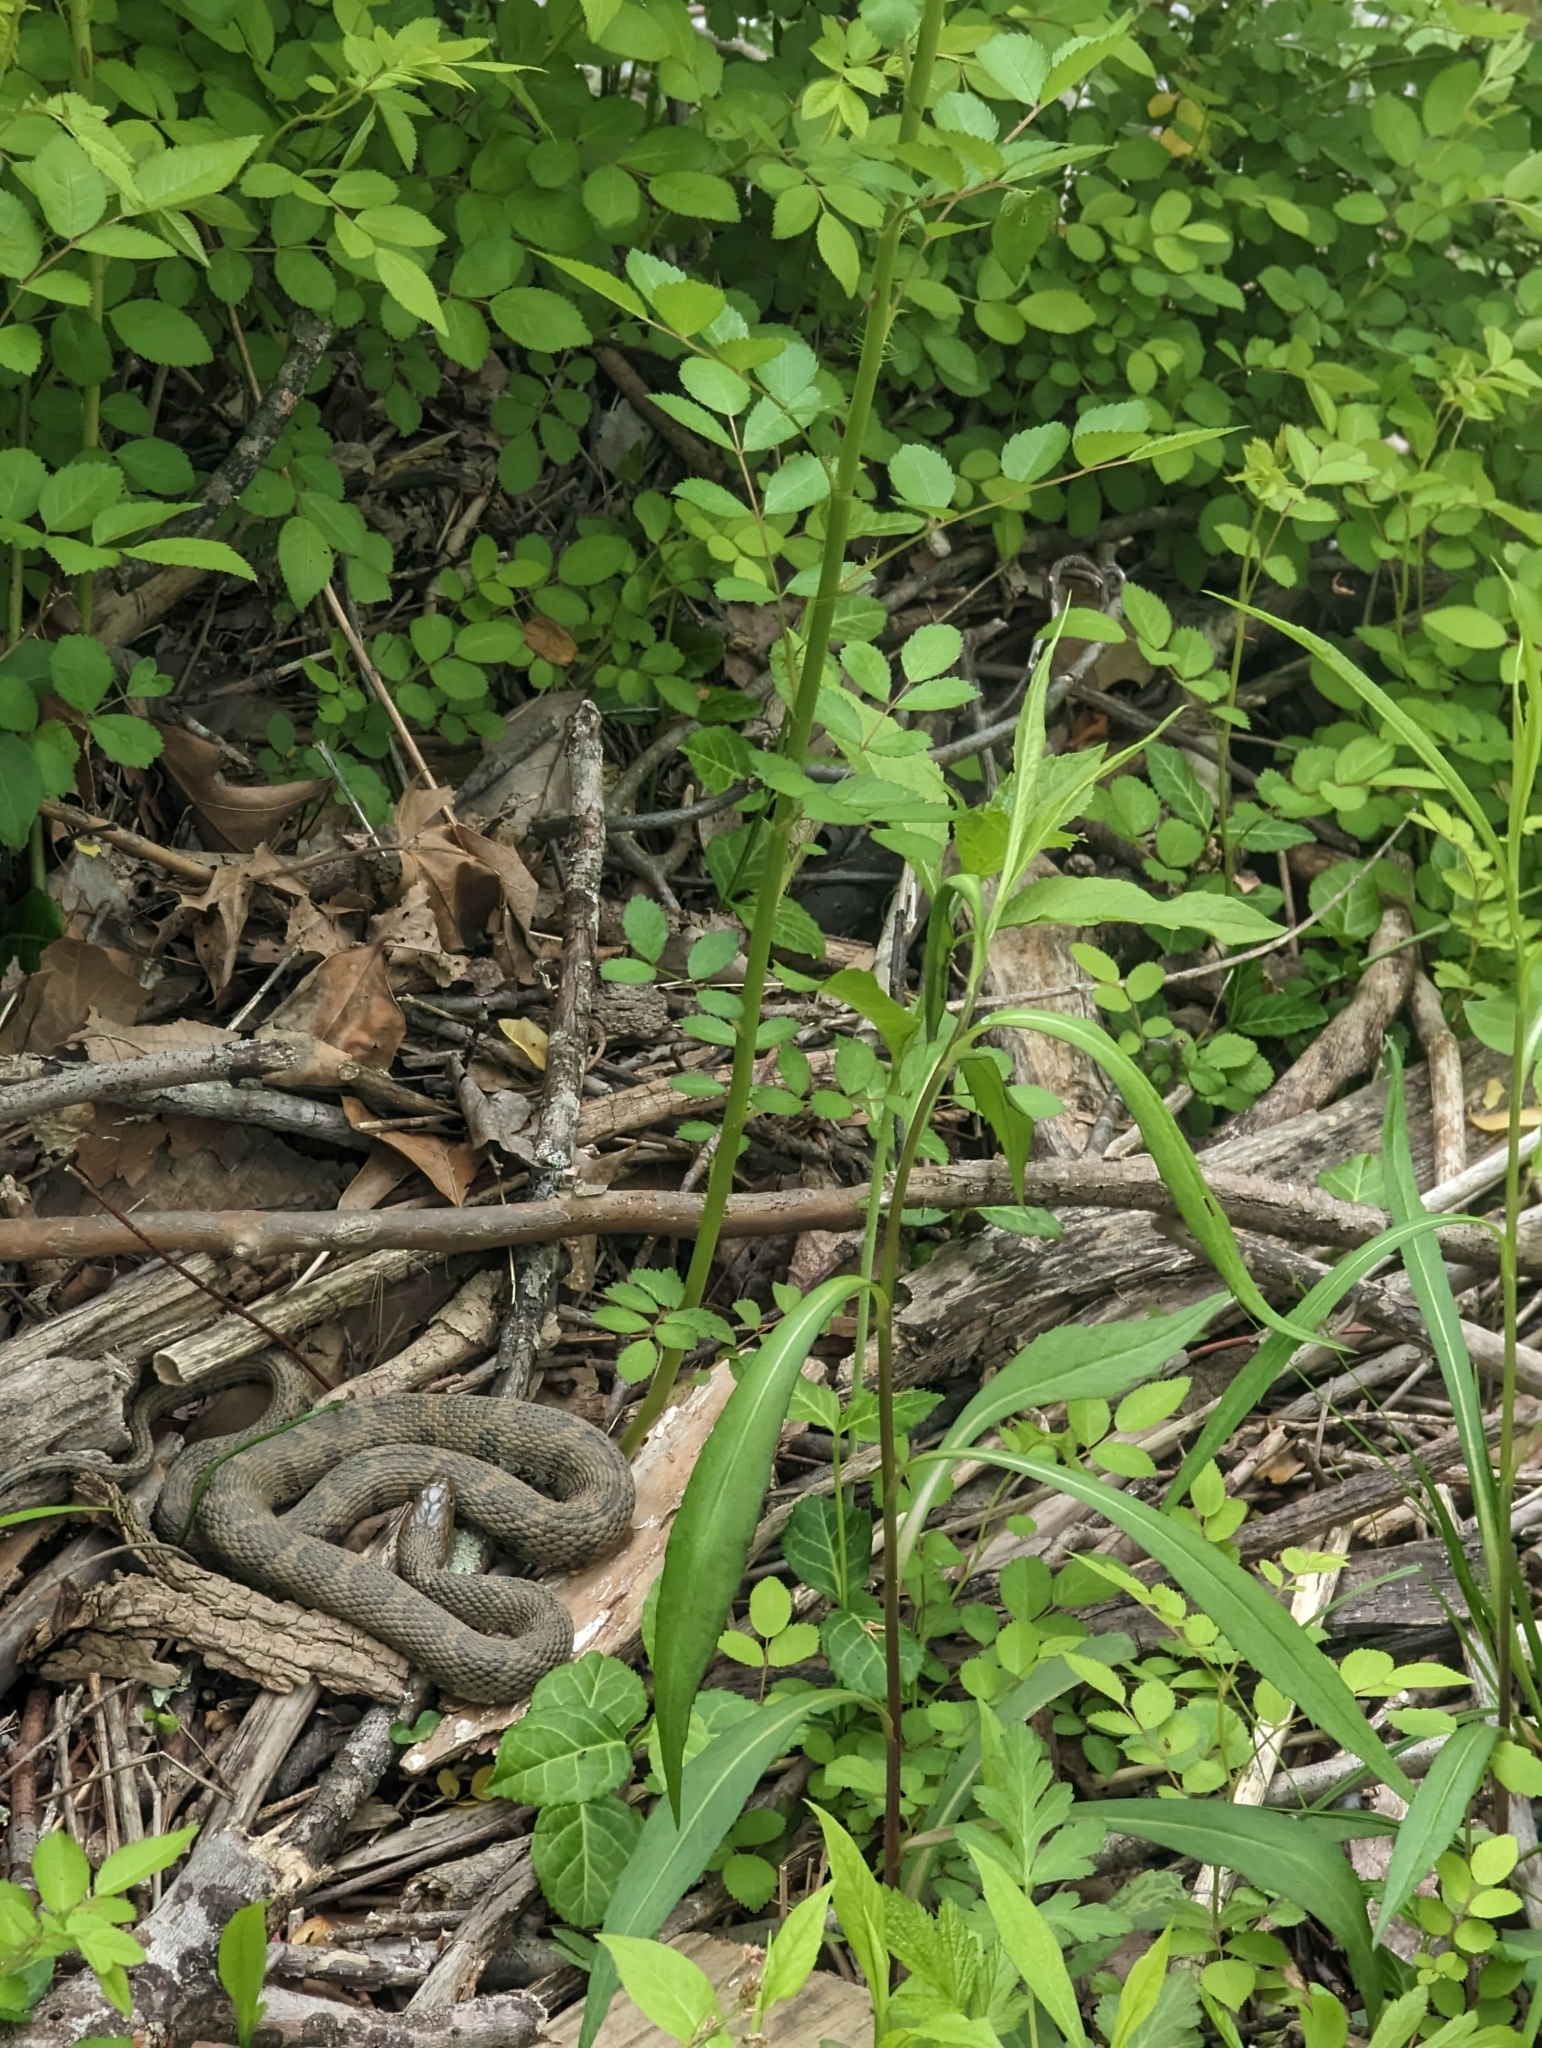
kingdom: Animalia
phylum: Chordata
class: Squamata
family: Colubridae
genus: Nerodia
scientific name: Nerodia sipedon
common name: Northern water snake
